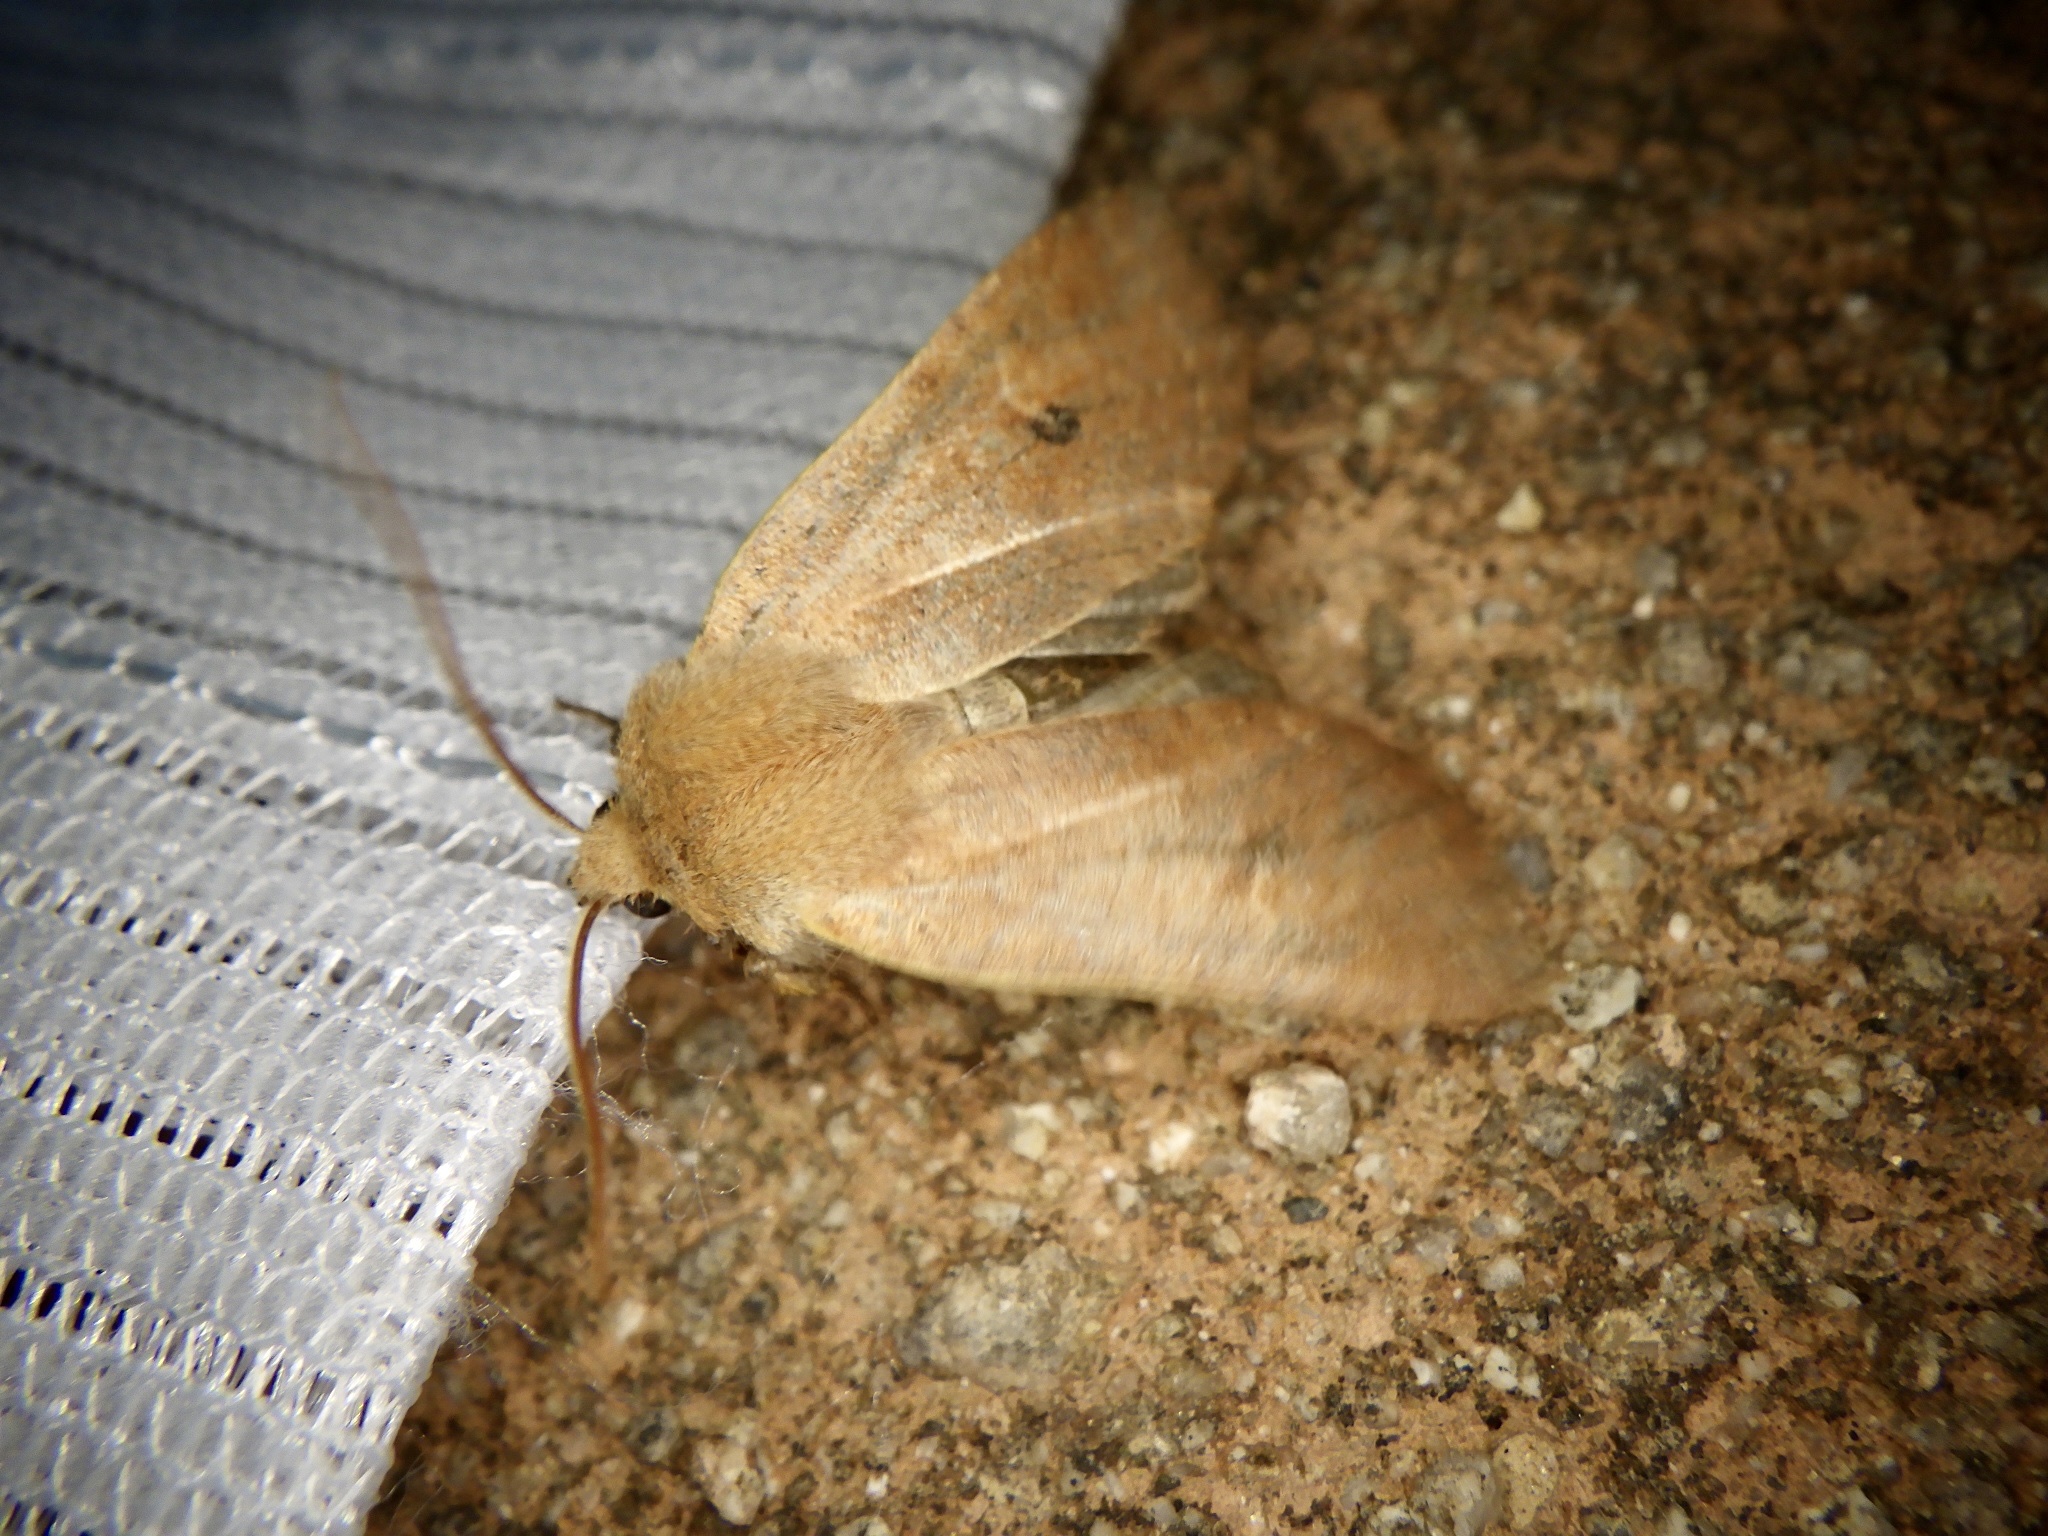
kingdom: Animalia
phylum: Arthropoda
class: Insecta
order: Lepidoptera
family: Noctuidae
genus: Conistra
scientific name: Conistra albipuncta
